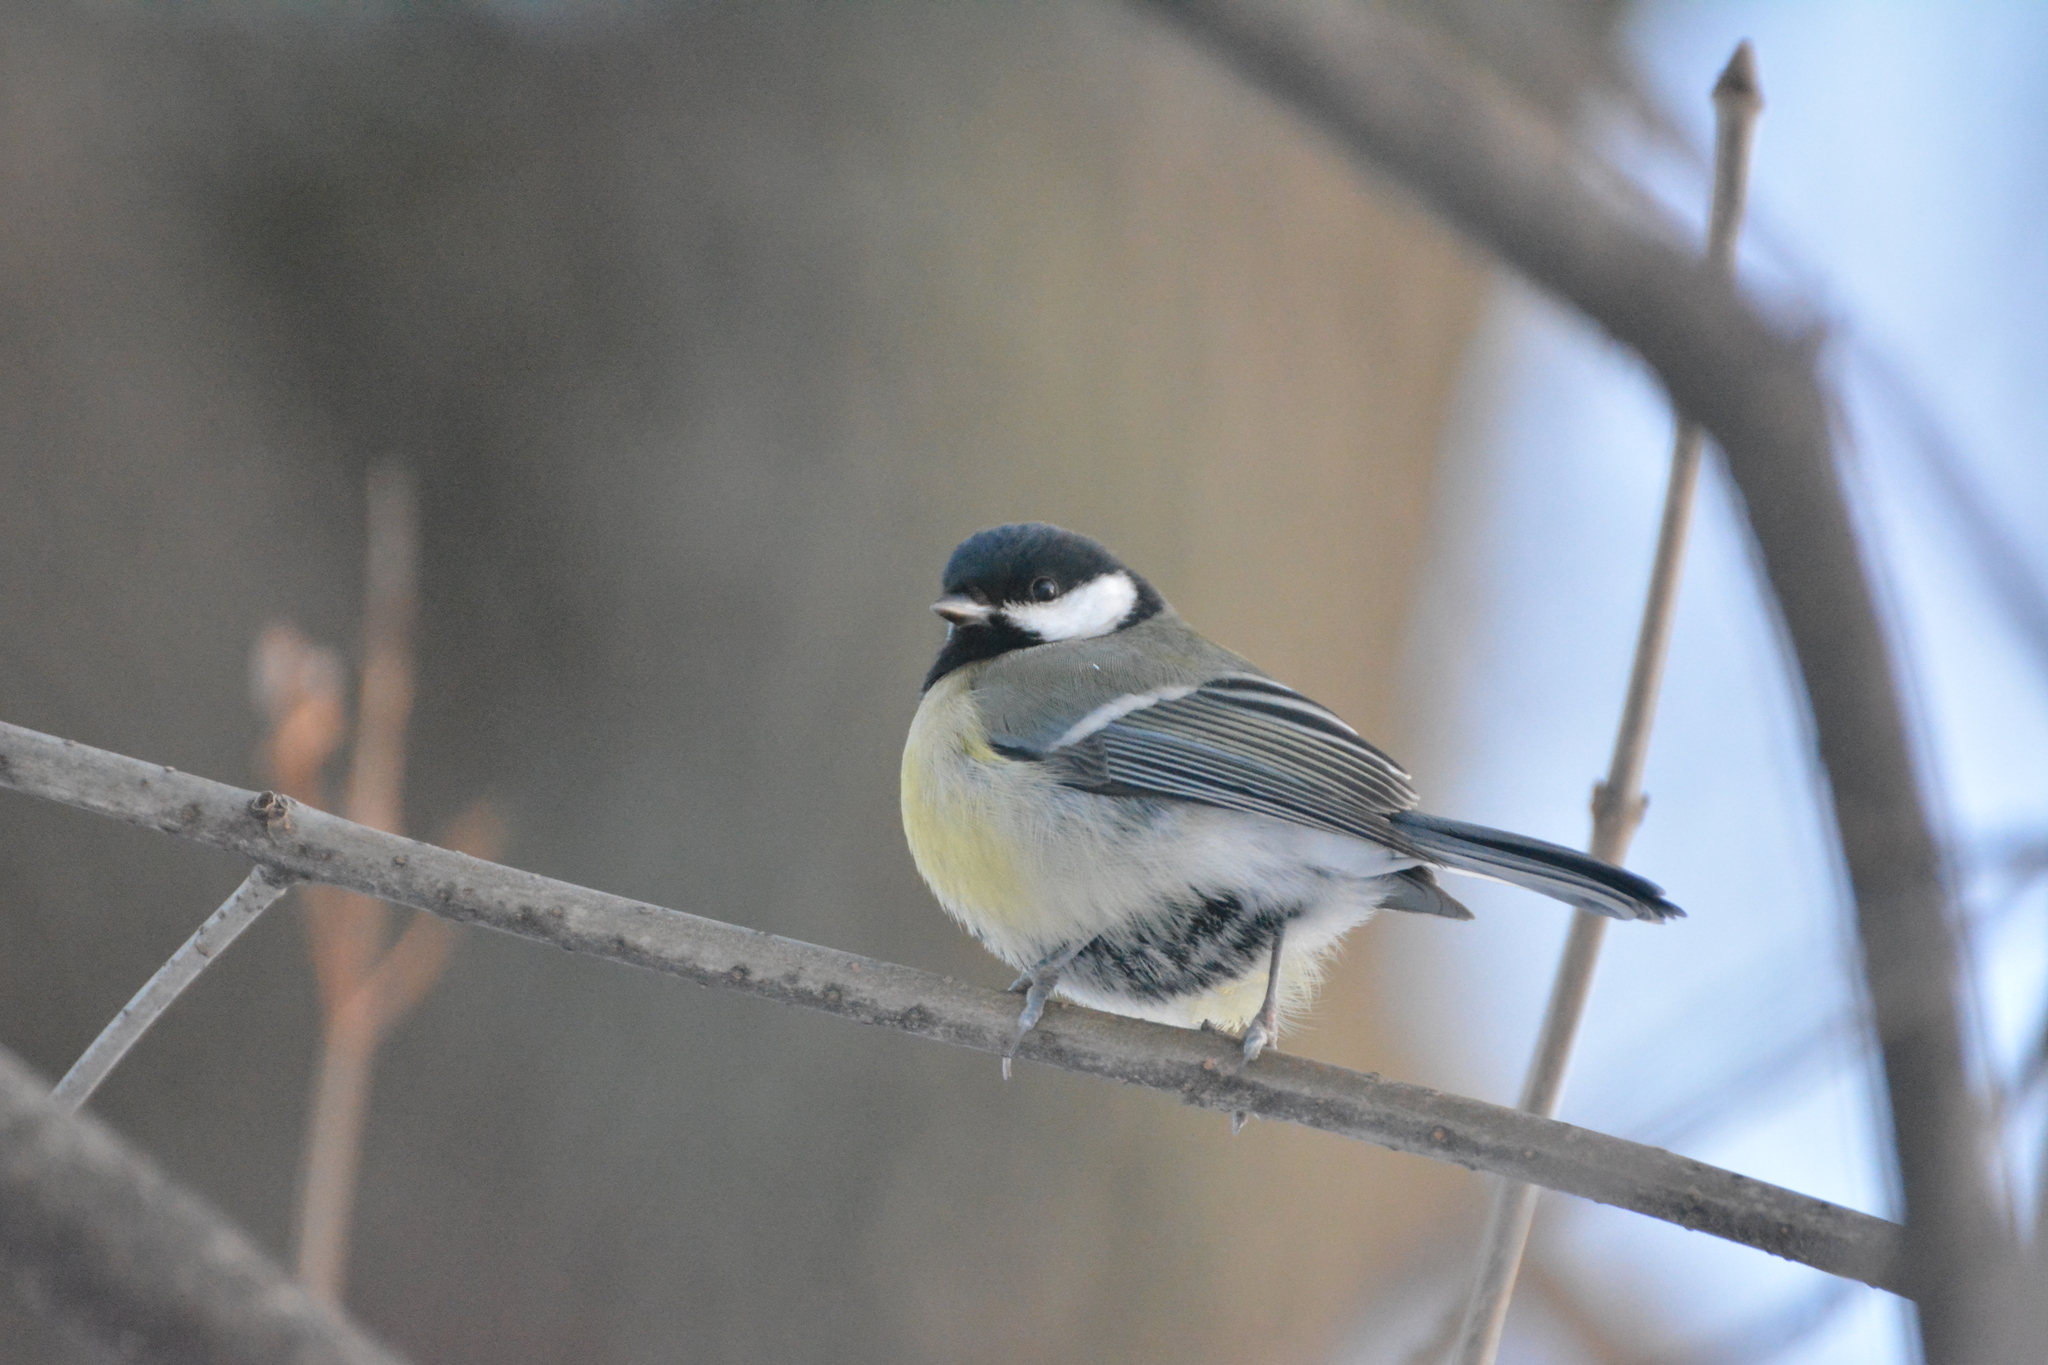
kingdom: Animalia
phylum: Chordata
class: Aves
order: Passeriformes
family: Paridae
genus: Parus
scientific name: Parus major
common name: Great tit
